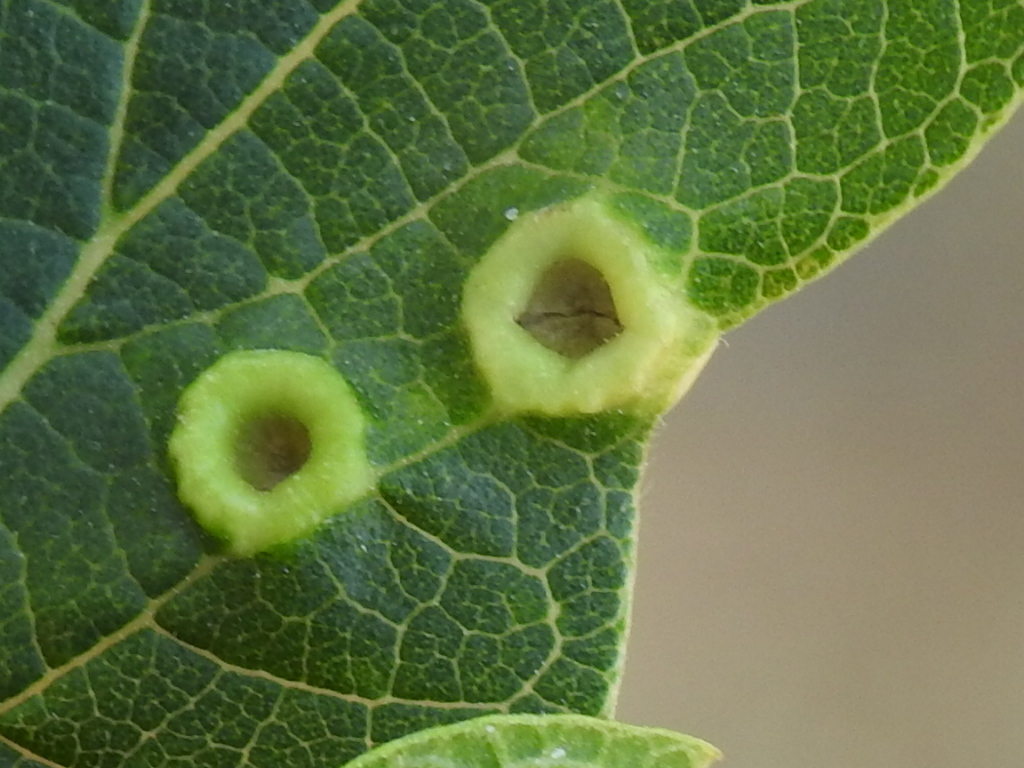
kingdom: Animalia
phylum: Arthropoda
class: Insecta
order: Hemiptera
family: Aphalaridae
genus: Pachypsylla
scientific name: Pachypsylla celtidismamma
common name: Hackberry nipplegall psyllid
